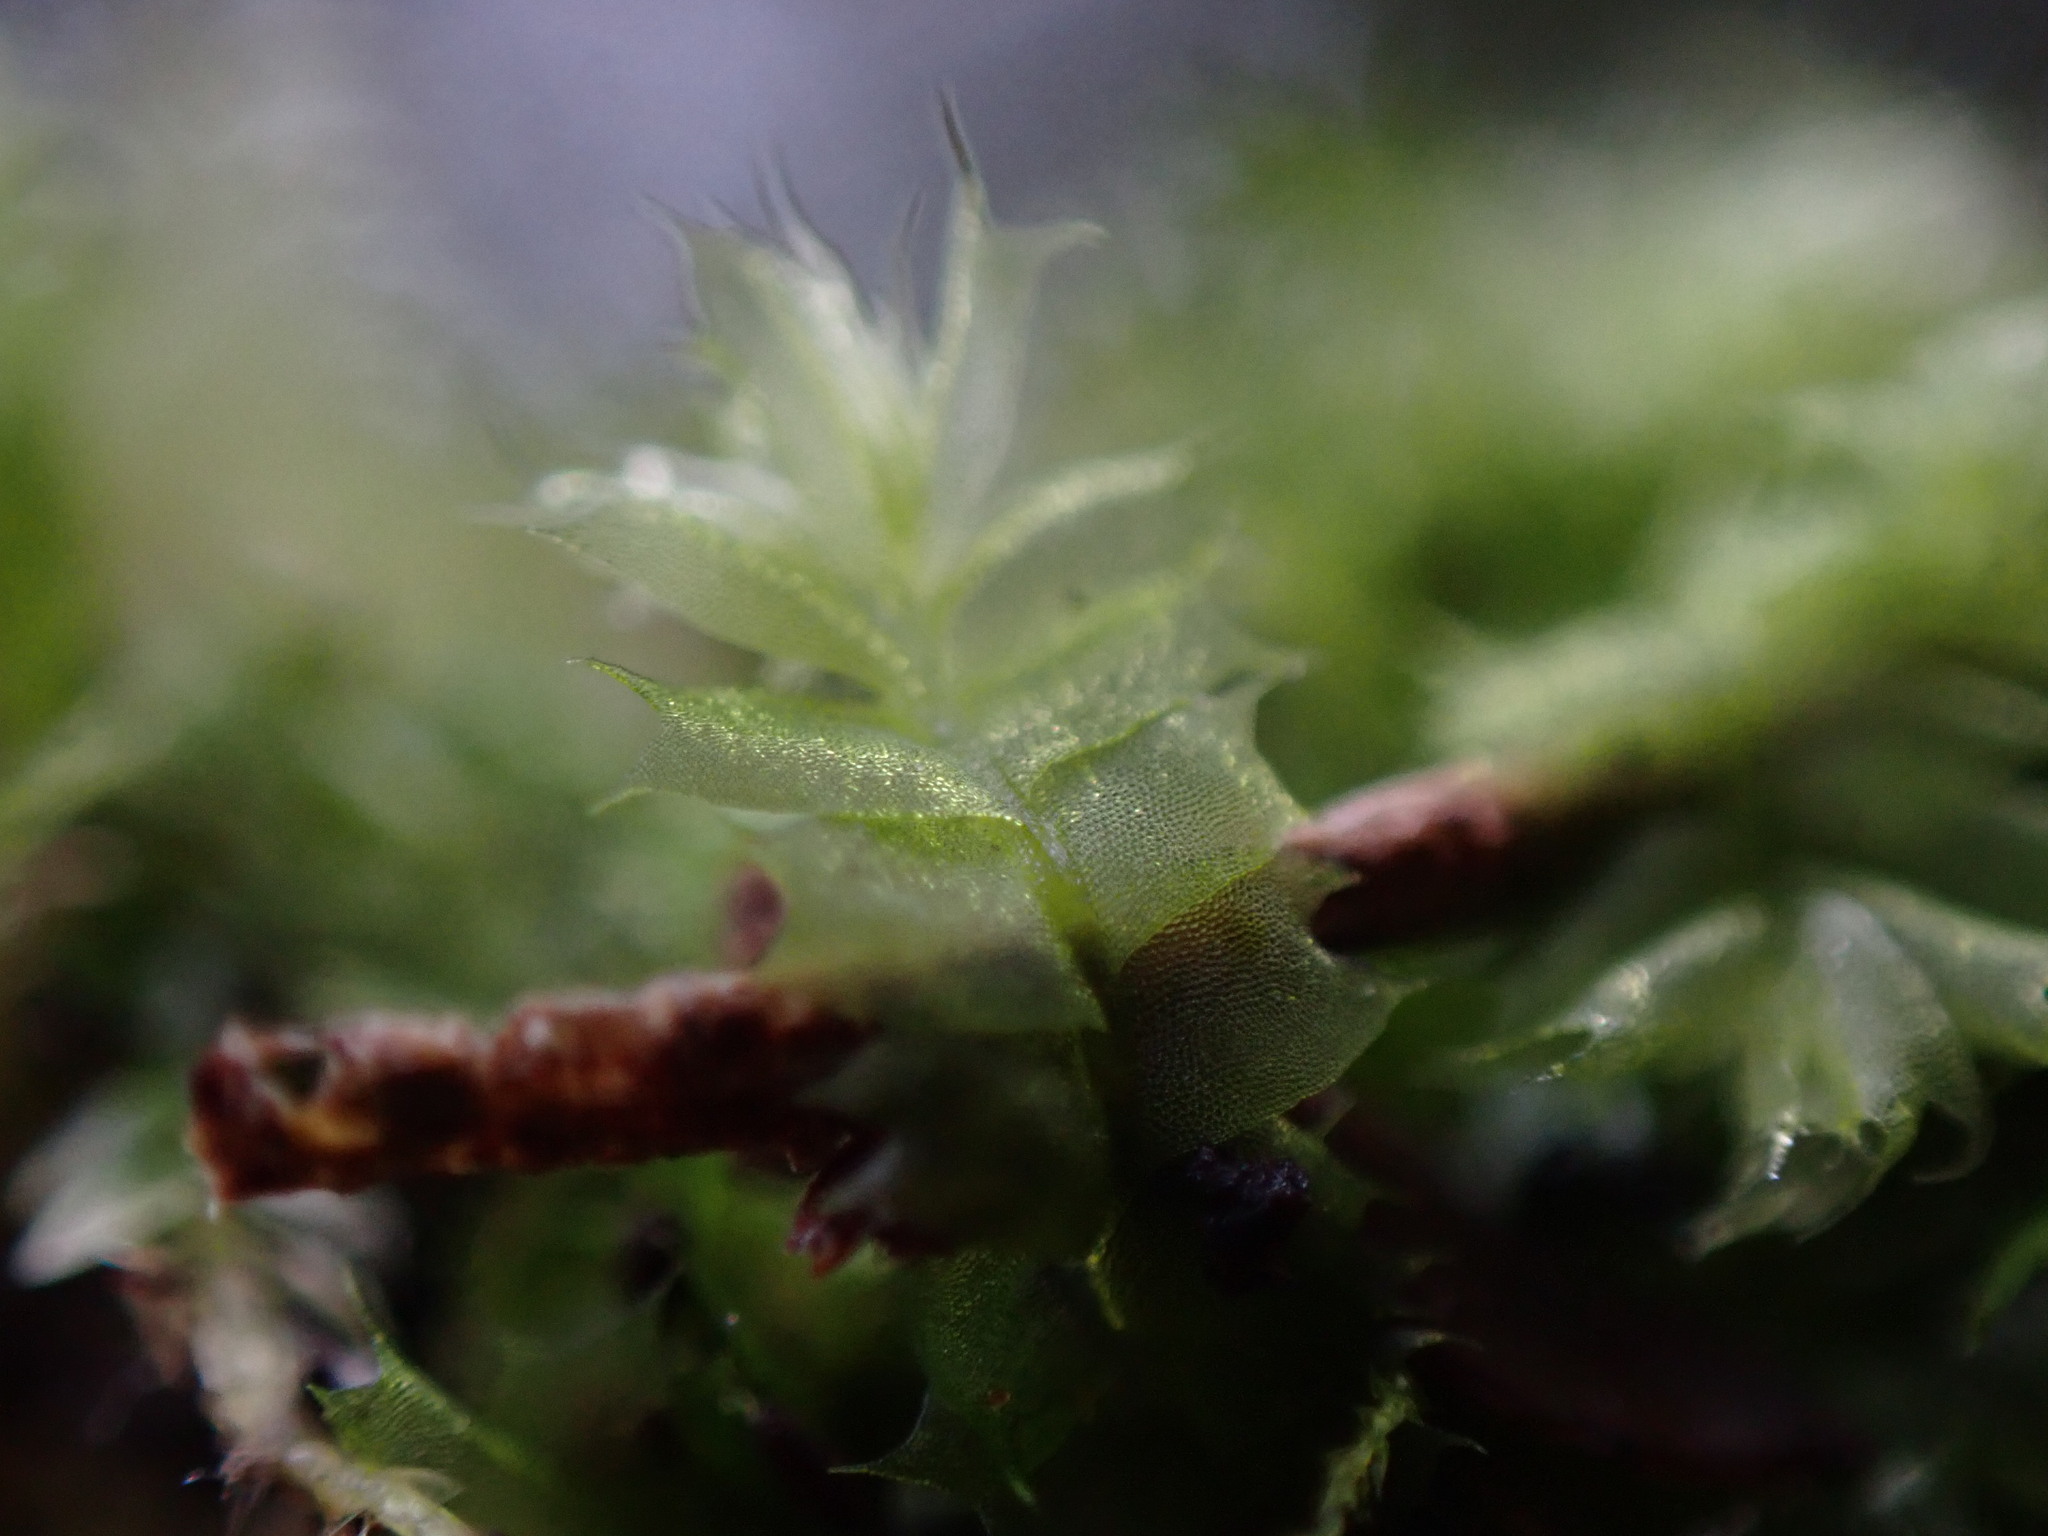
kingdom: Plantae
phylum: Marchantiophyta
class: Jungermanniopsida
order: Jungermanniales
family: Lophocoleaceae
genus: Lophocolea
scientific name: Lophocolea bidentata
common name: Bifid crestwort
